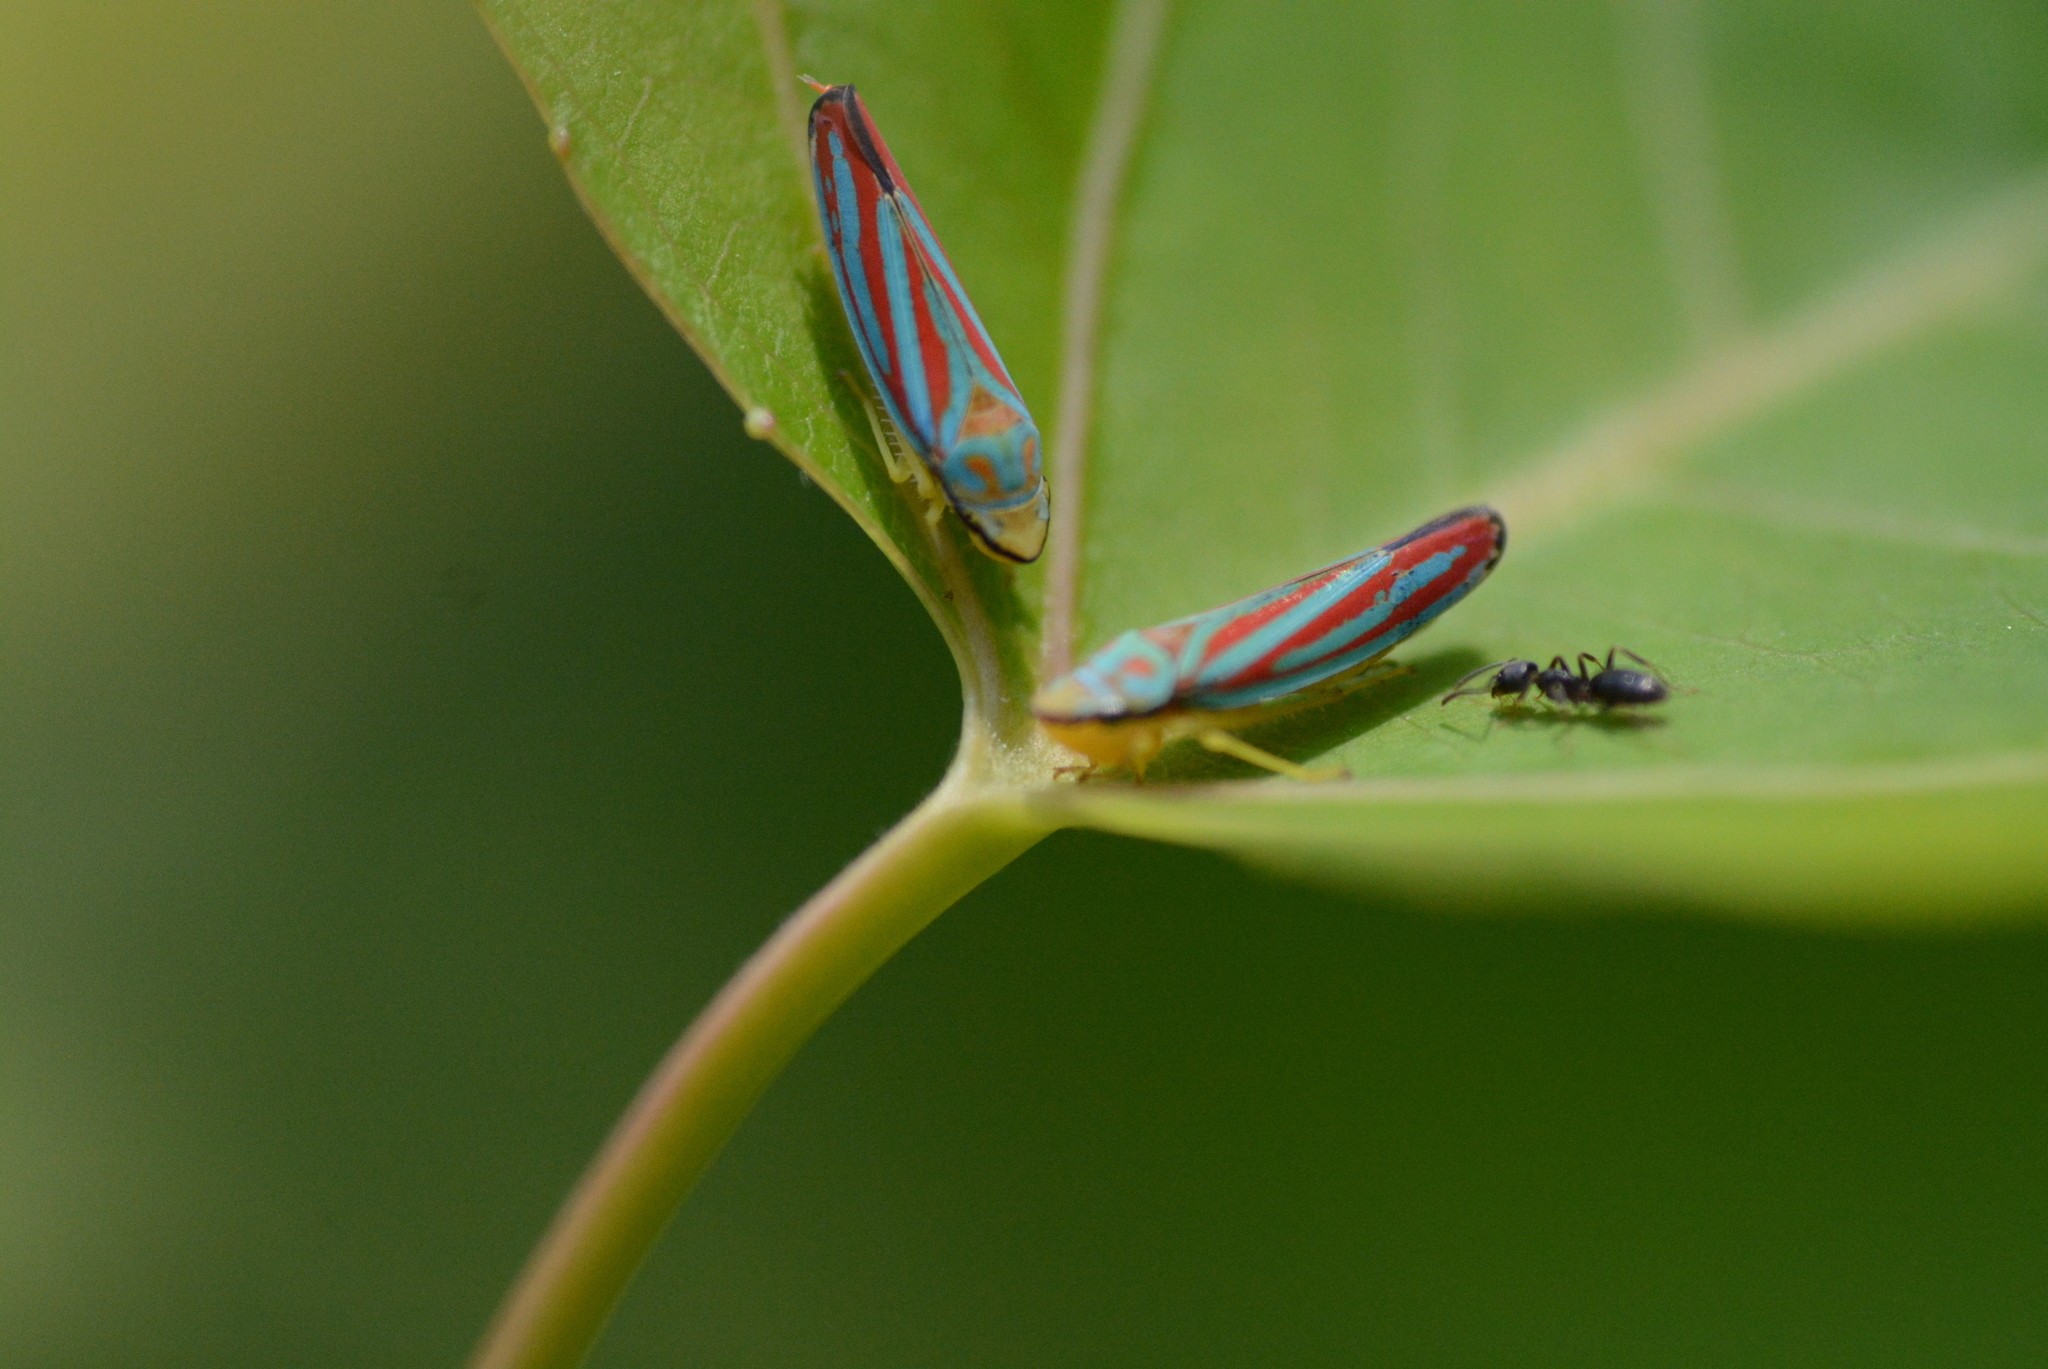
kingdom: Animalia
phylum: Arthropoda
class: Insecta
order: Hymenoptera
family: Formicidae
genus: Tapinoma
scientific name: Tapinoma sessile
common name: Odorous house ant
